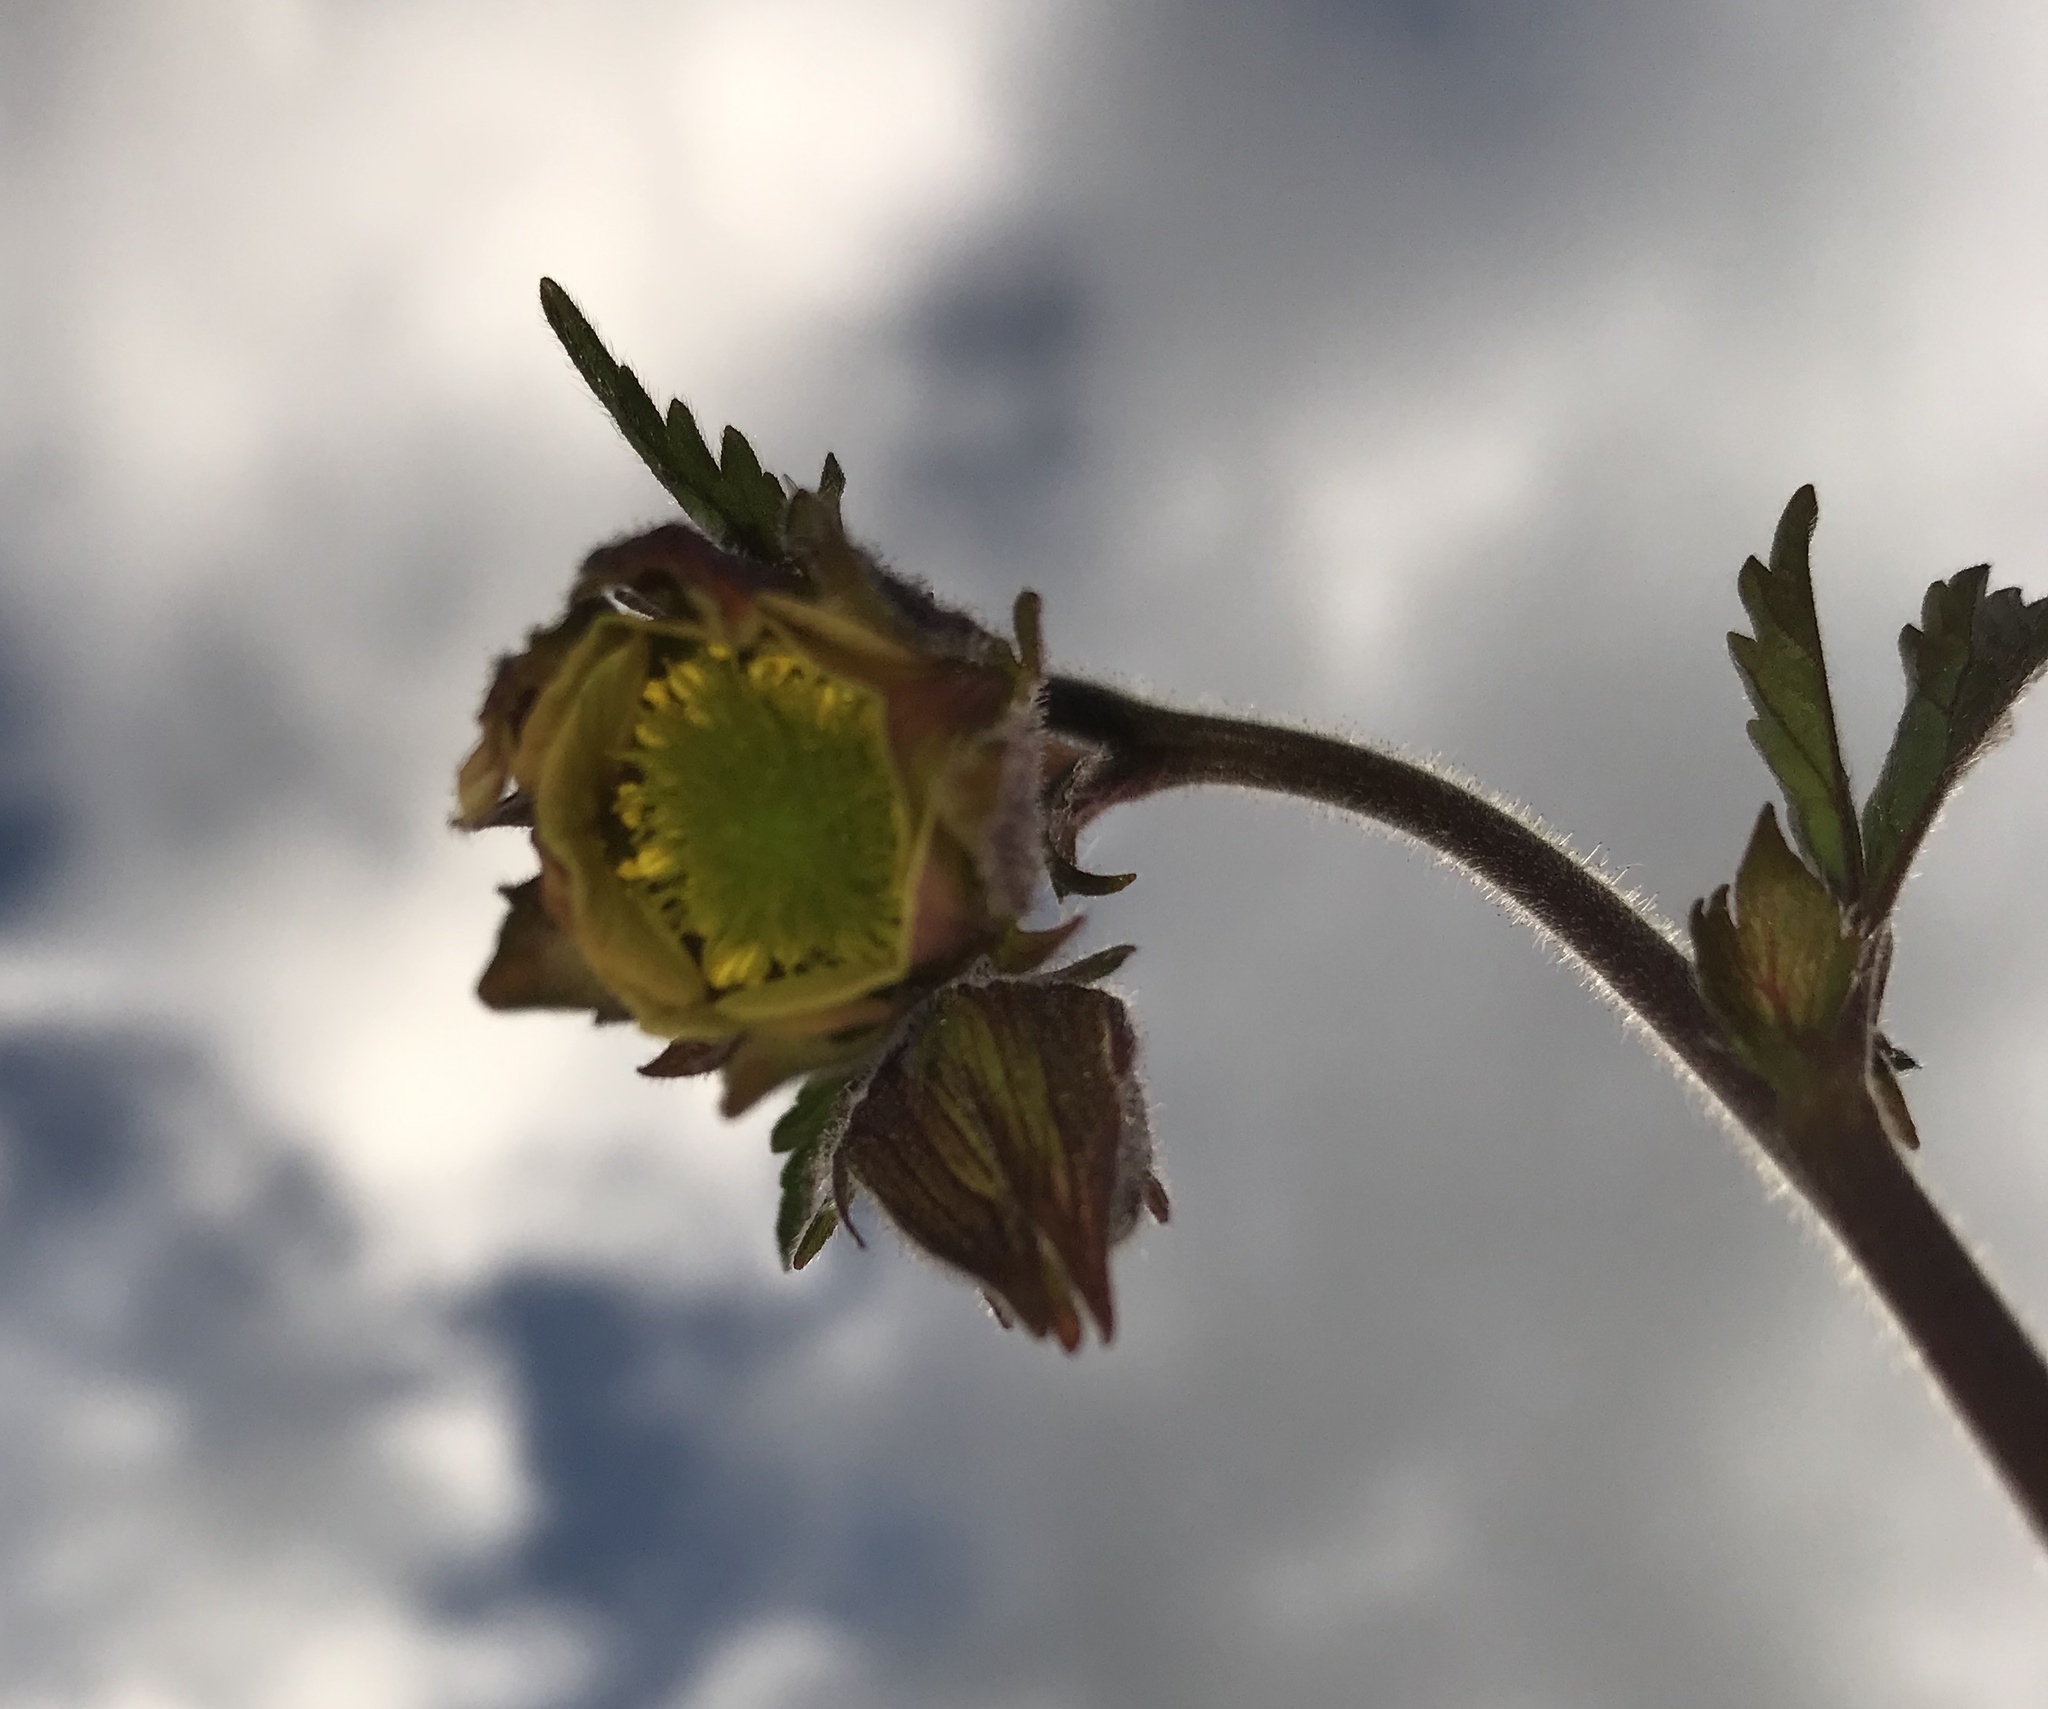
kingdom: Plantae
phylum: Tracheophyta
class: Magnoliopsida
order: Rosales
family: Rosaceae
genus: Geum
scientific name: Geum rivale
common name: Water avens
